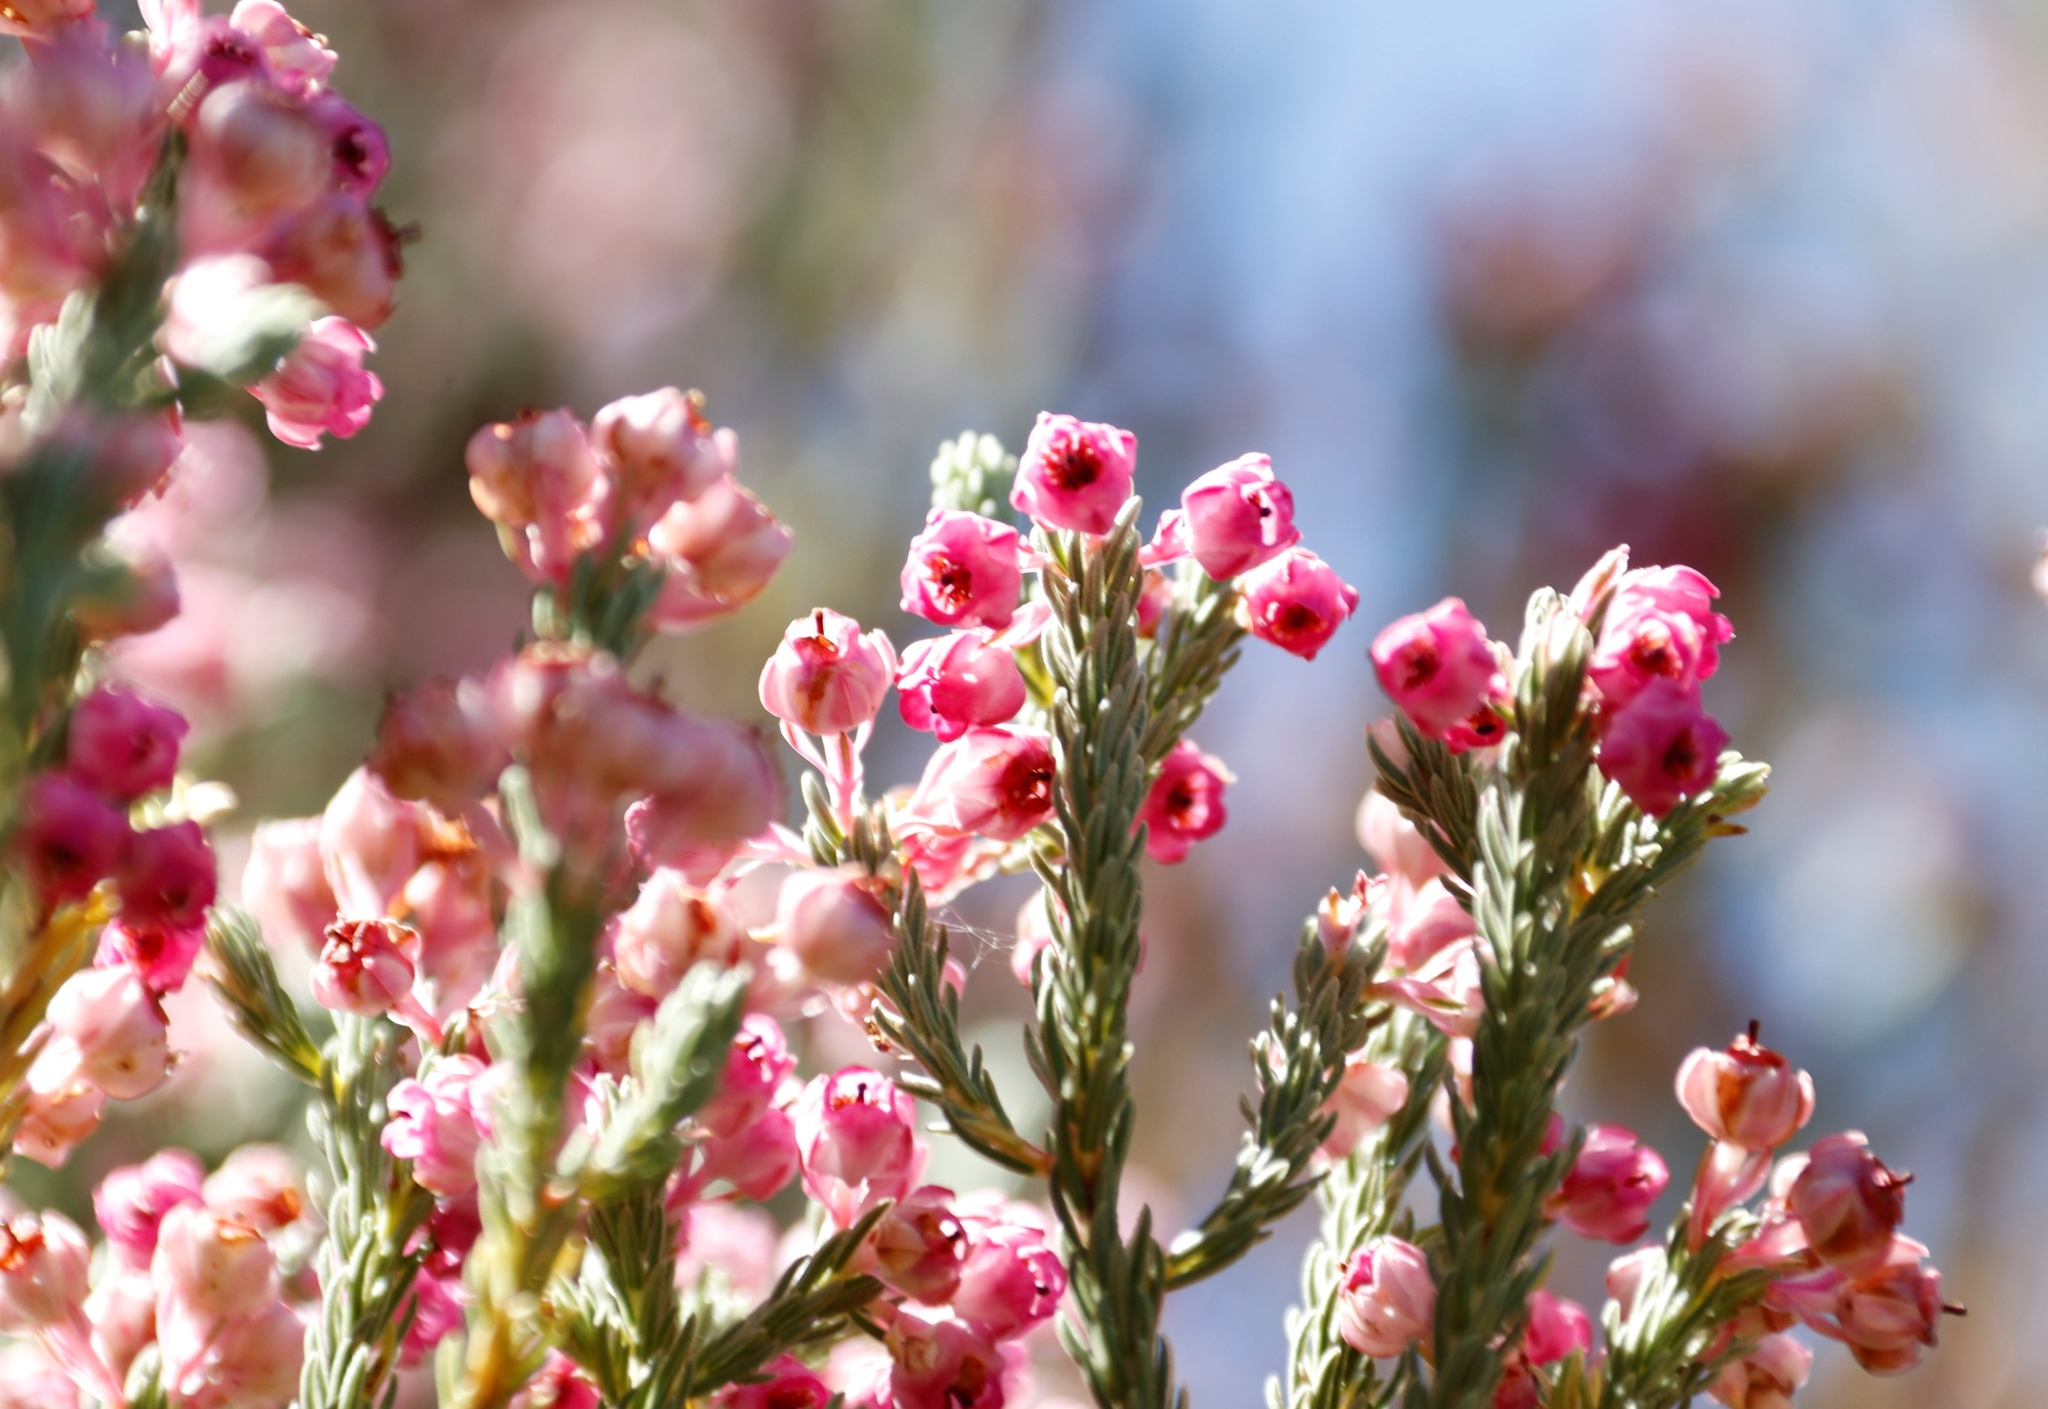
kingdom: Plantae
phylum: Tracheophyta
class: Magnoliopsida
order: Ericales
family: Ericaceae
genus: Erica
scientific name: Erica baccans
